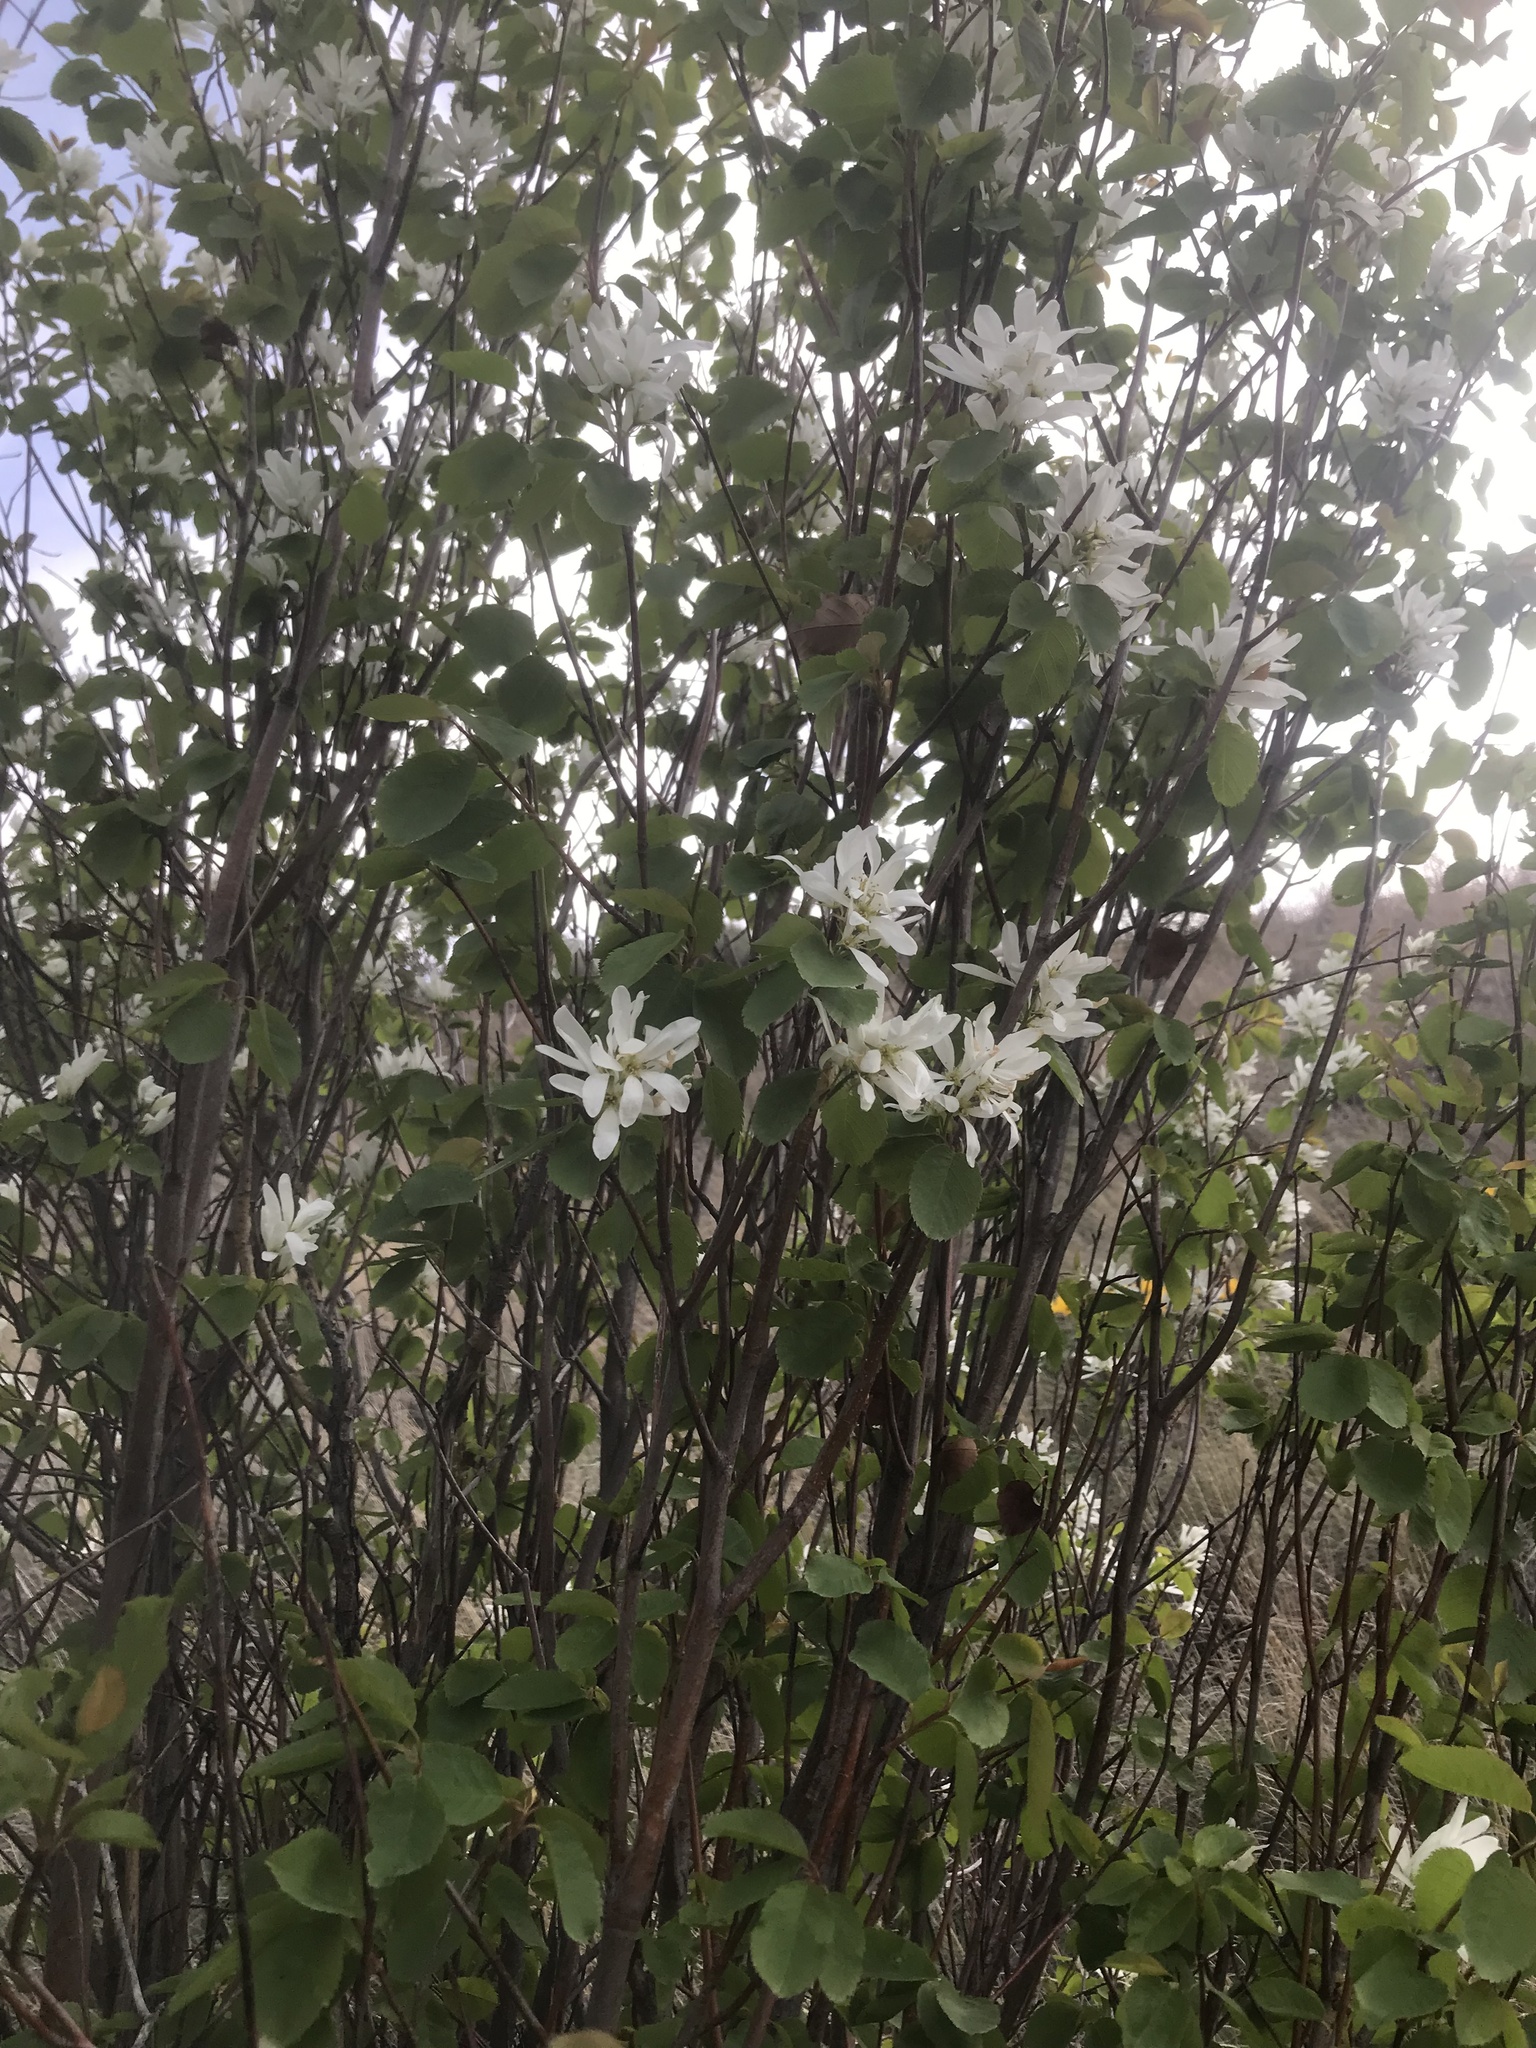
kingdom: Plantae
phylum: Tracheophyta
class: Magnoliopsida
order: Rosales
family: Rosaceae
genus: Amelanchier
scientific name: Amelanchier alnifolia
